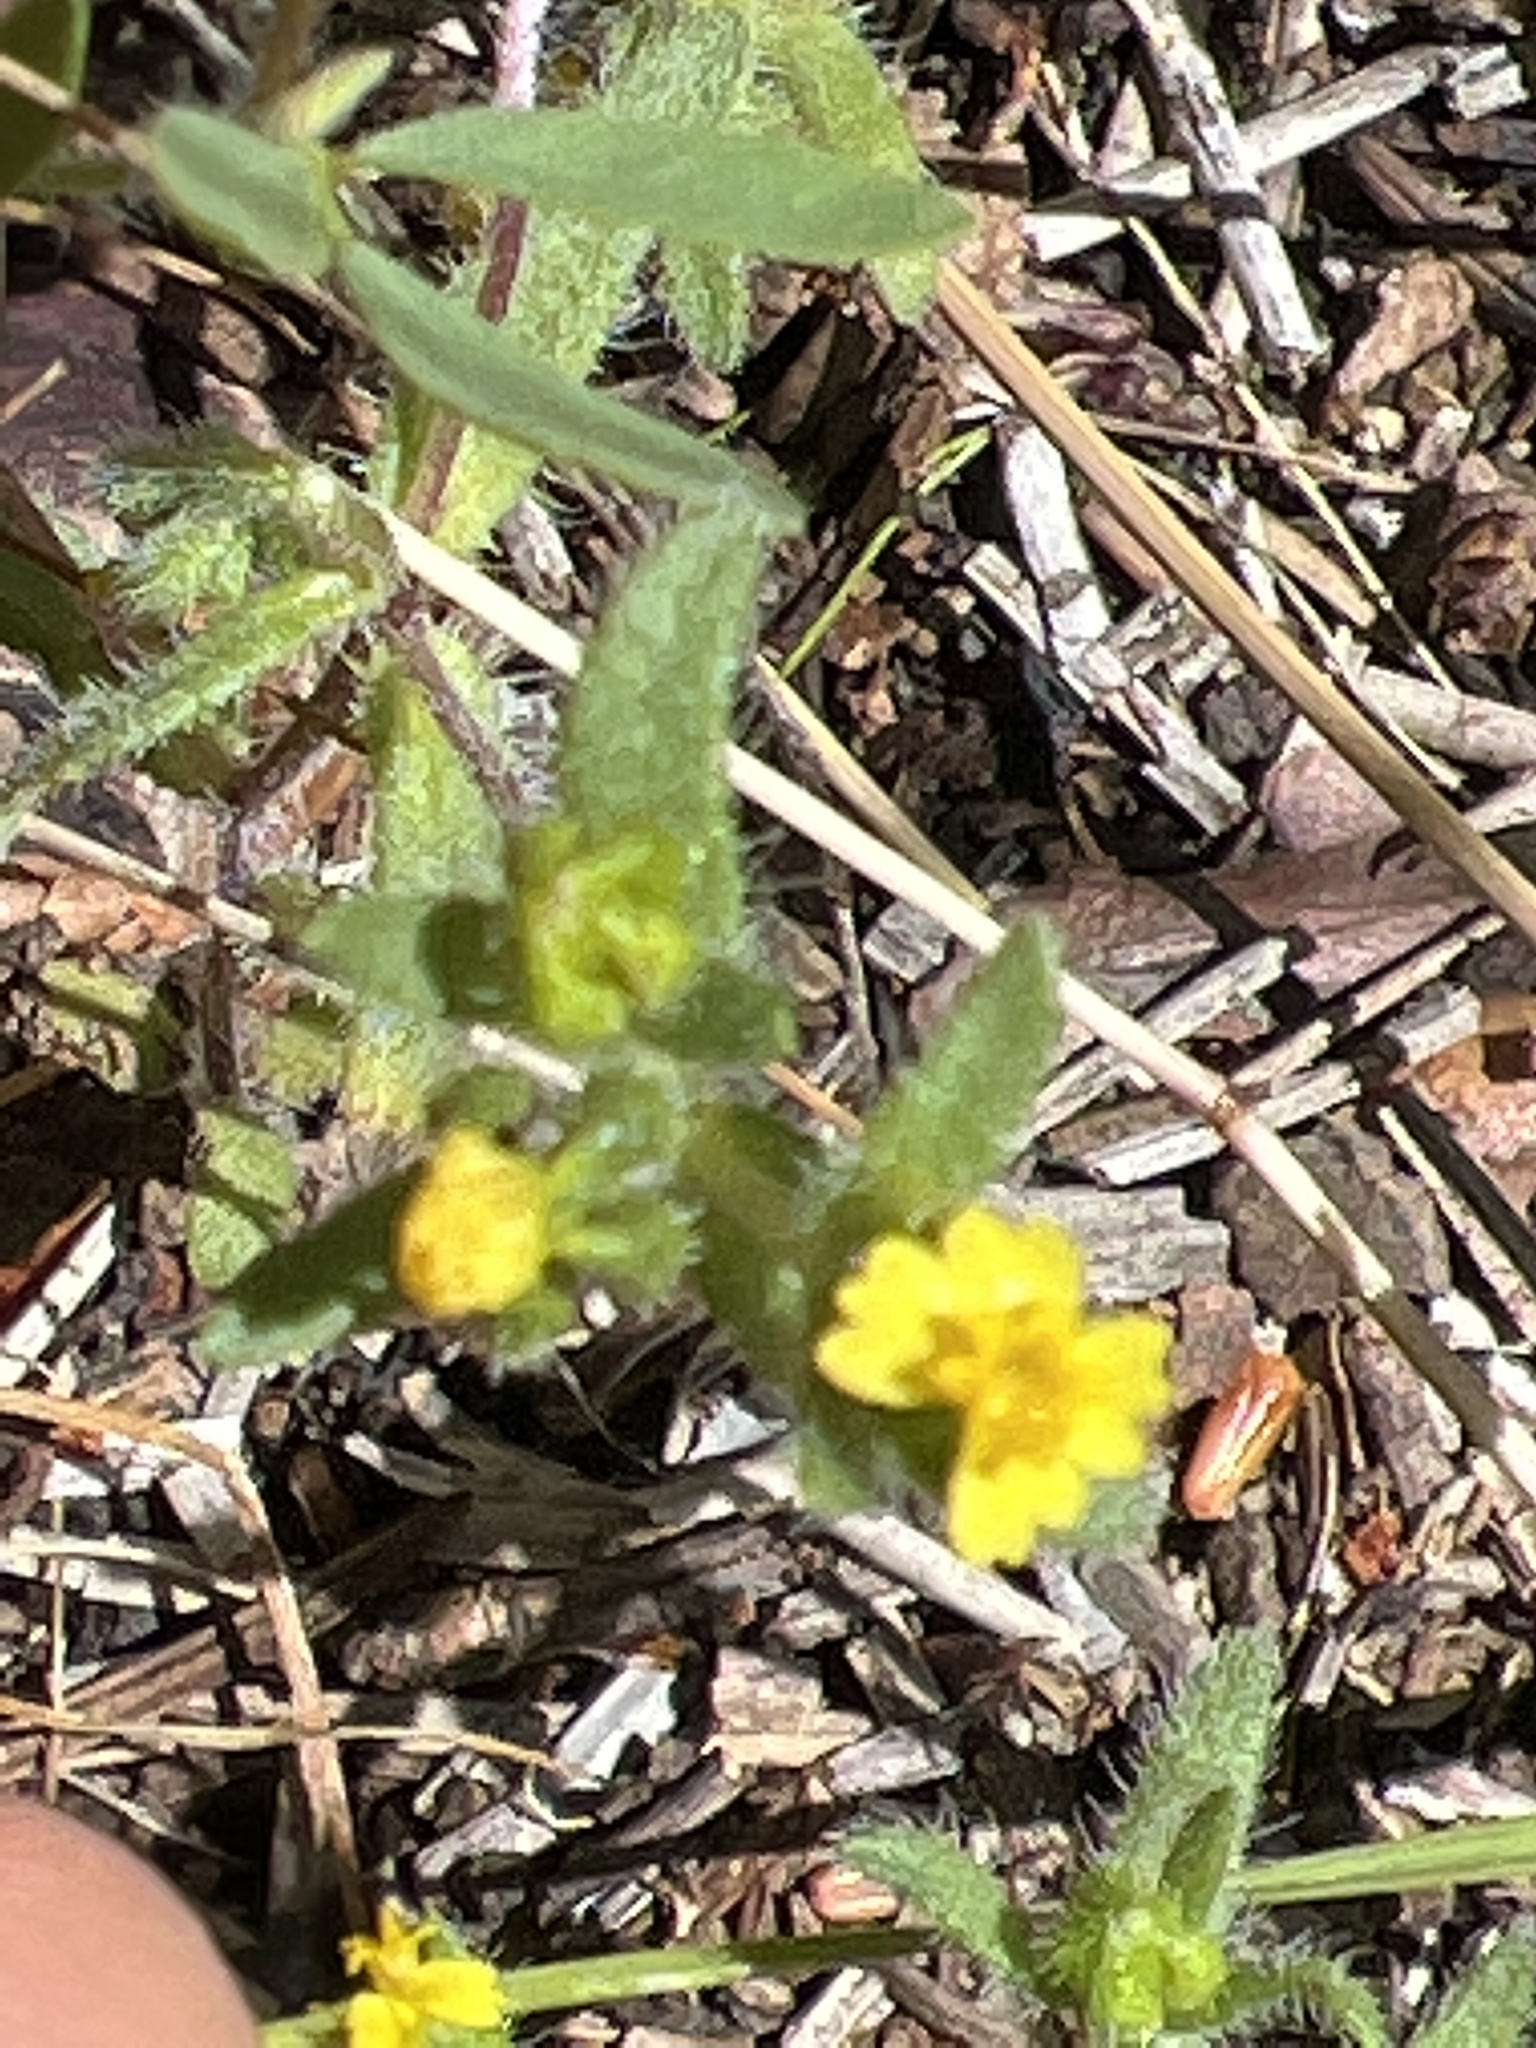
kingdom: Plantae
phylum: Tracheophyta
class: Magnoliopsida
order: Asterales
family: Asteraceae
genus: Hemizonella
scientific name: Hemizonella minima
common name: Opposite-leaved tarweed
